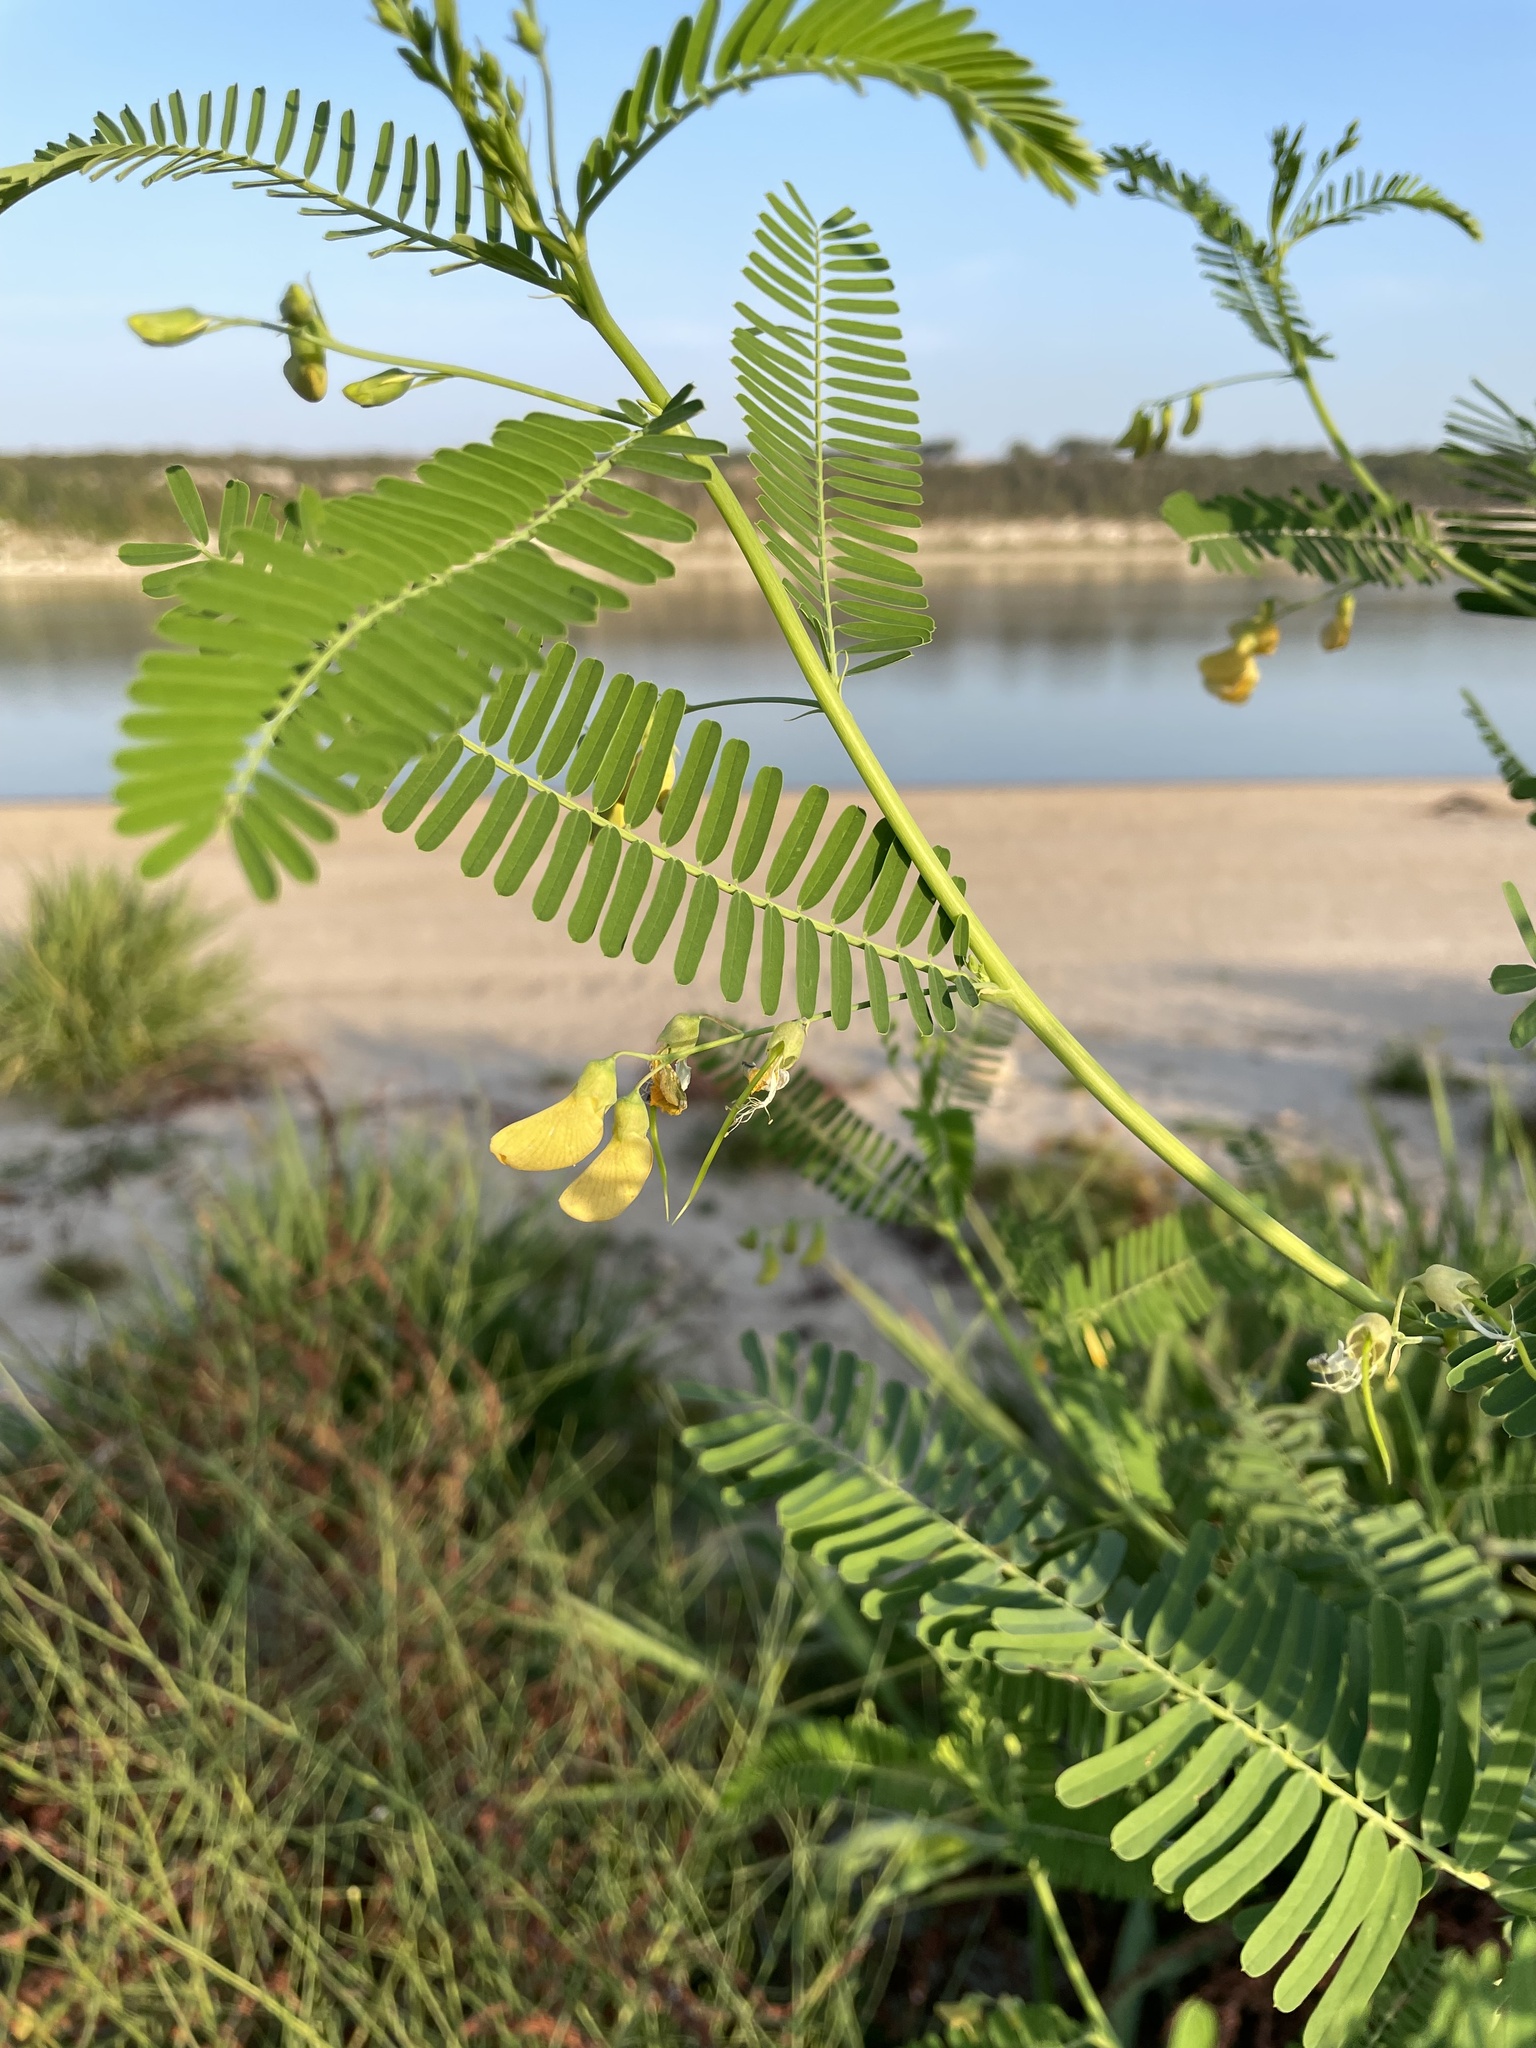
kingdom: Plantae
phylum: Tracheophyta
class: Magnoliopsida
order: Fabales
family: Fabaceae
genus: Sesbania
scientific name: Sesbania herbacea
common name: Bigpod sesbania
